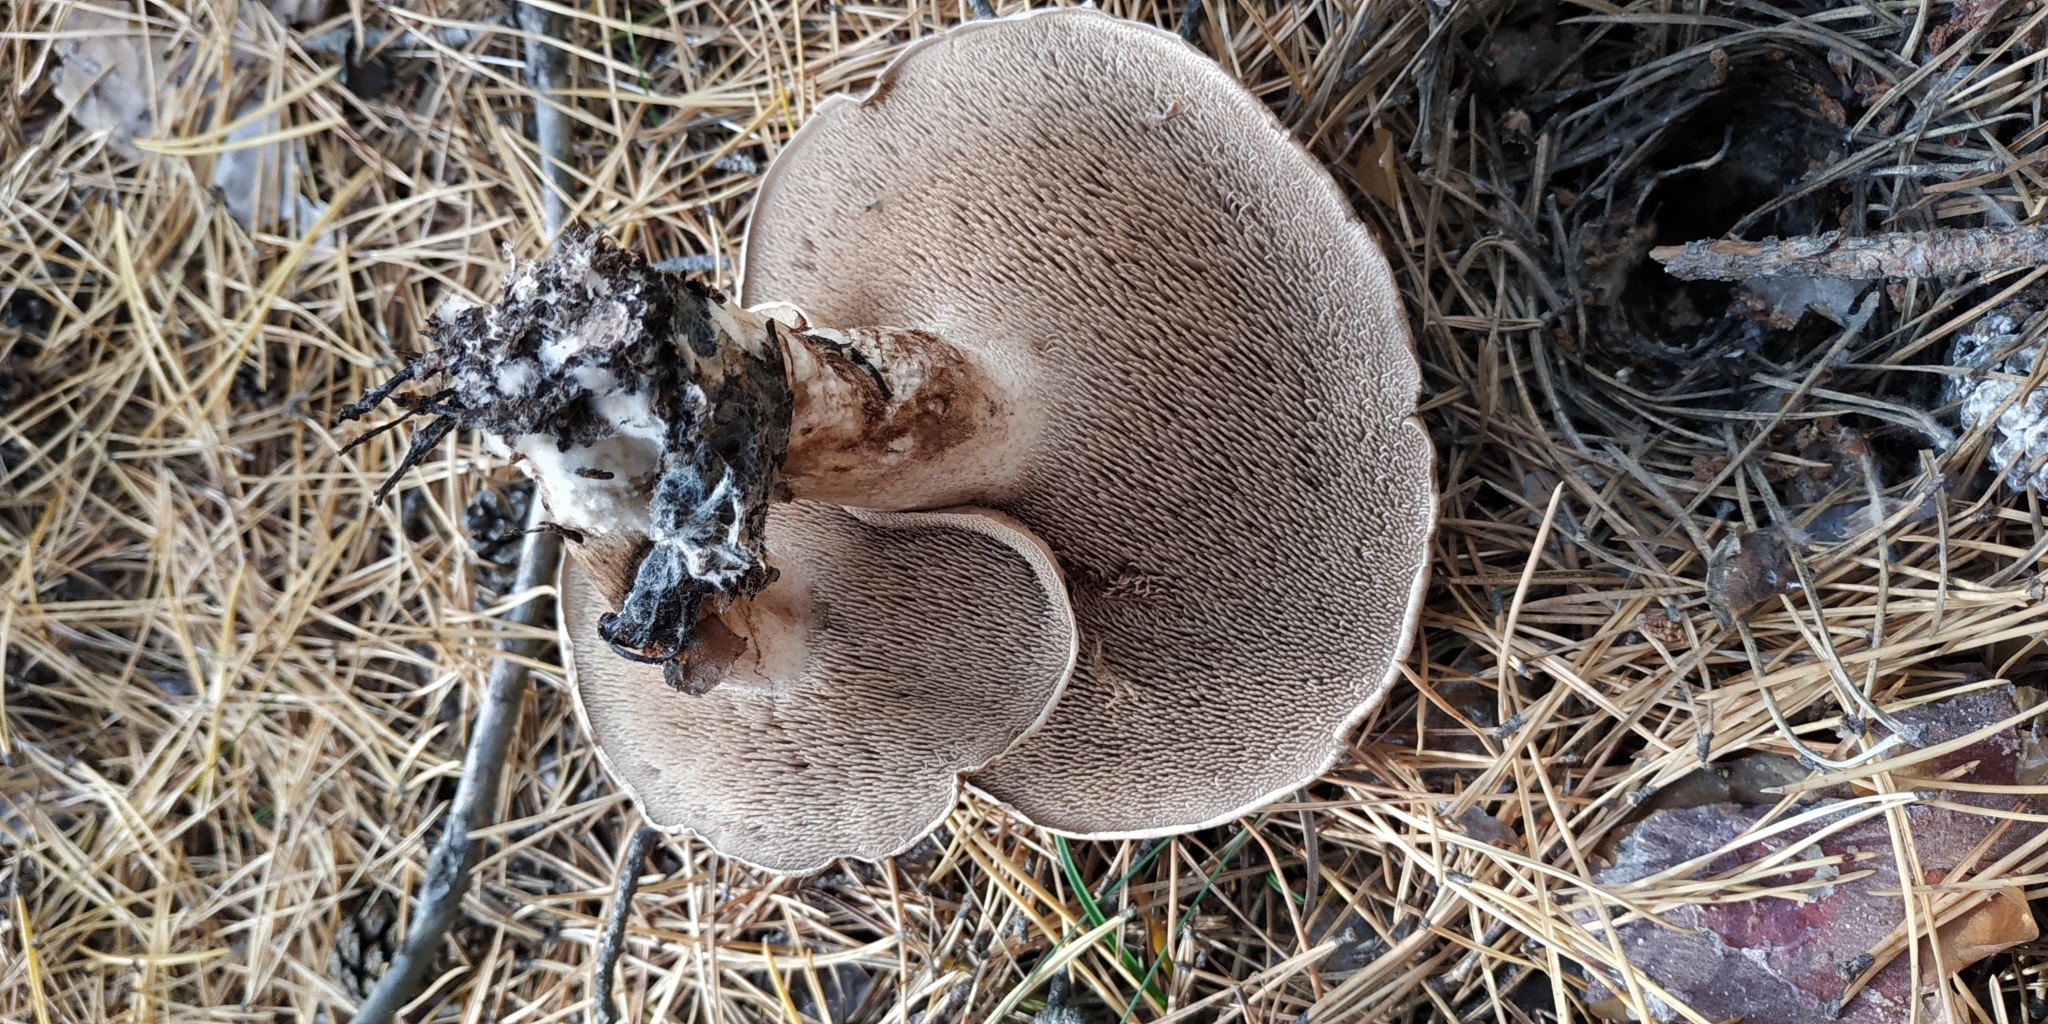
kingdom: Fungi
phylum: Basidiomycota
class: Agaricomycetes
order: Thelephorales
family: Bankeraceae
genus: Sarcodon
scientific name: Sarcodon imbricatus
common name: Shingled hedgehog
